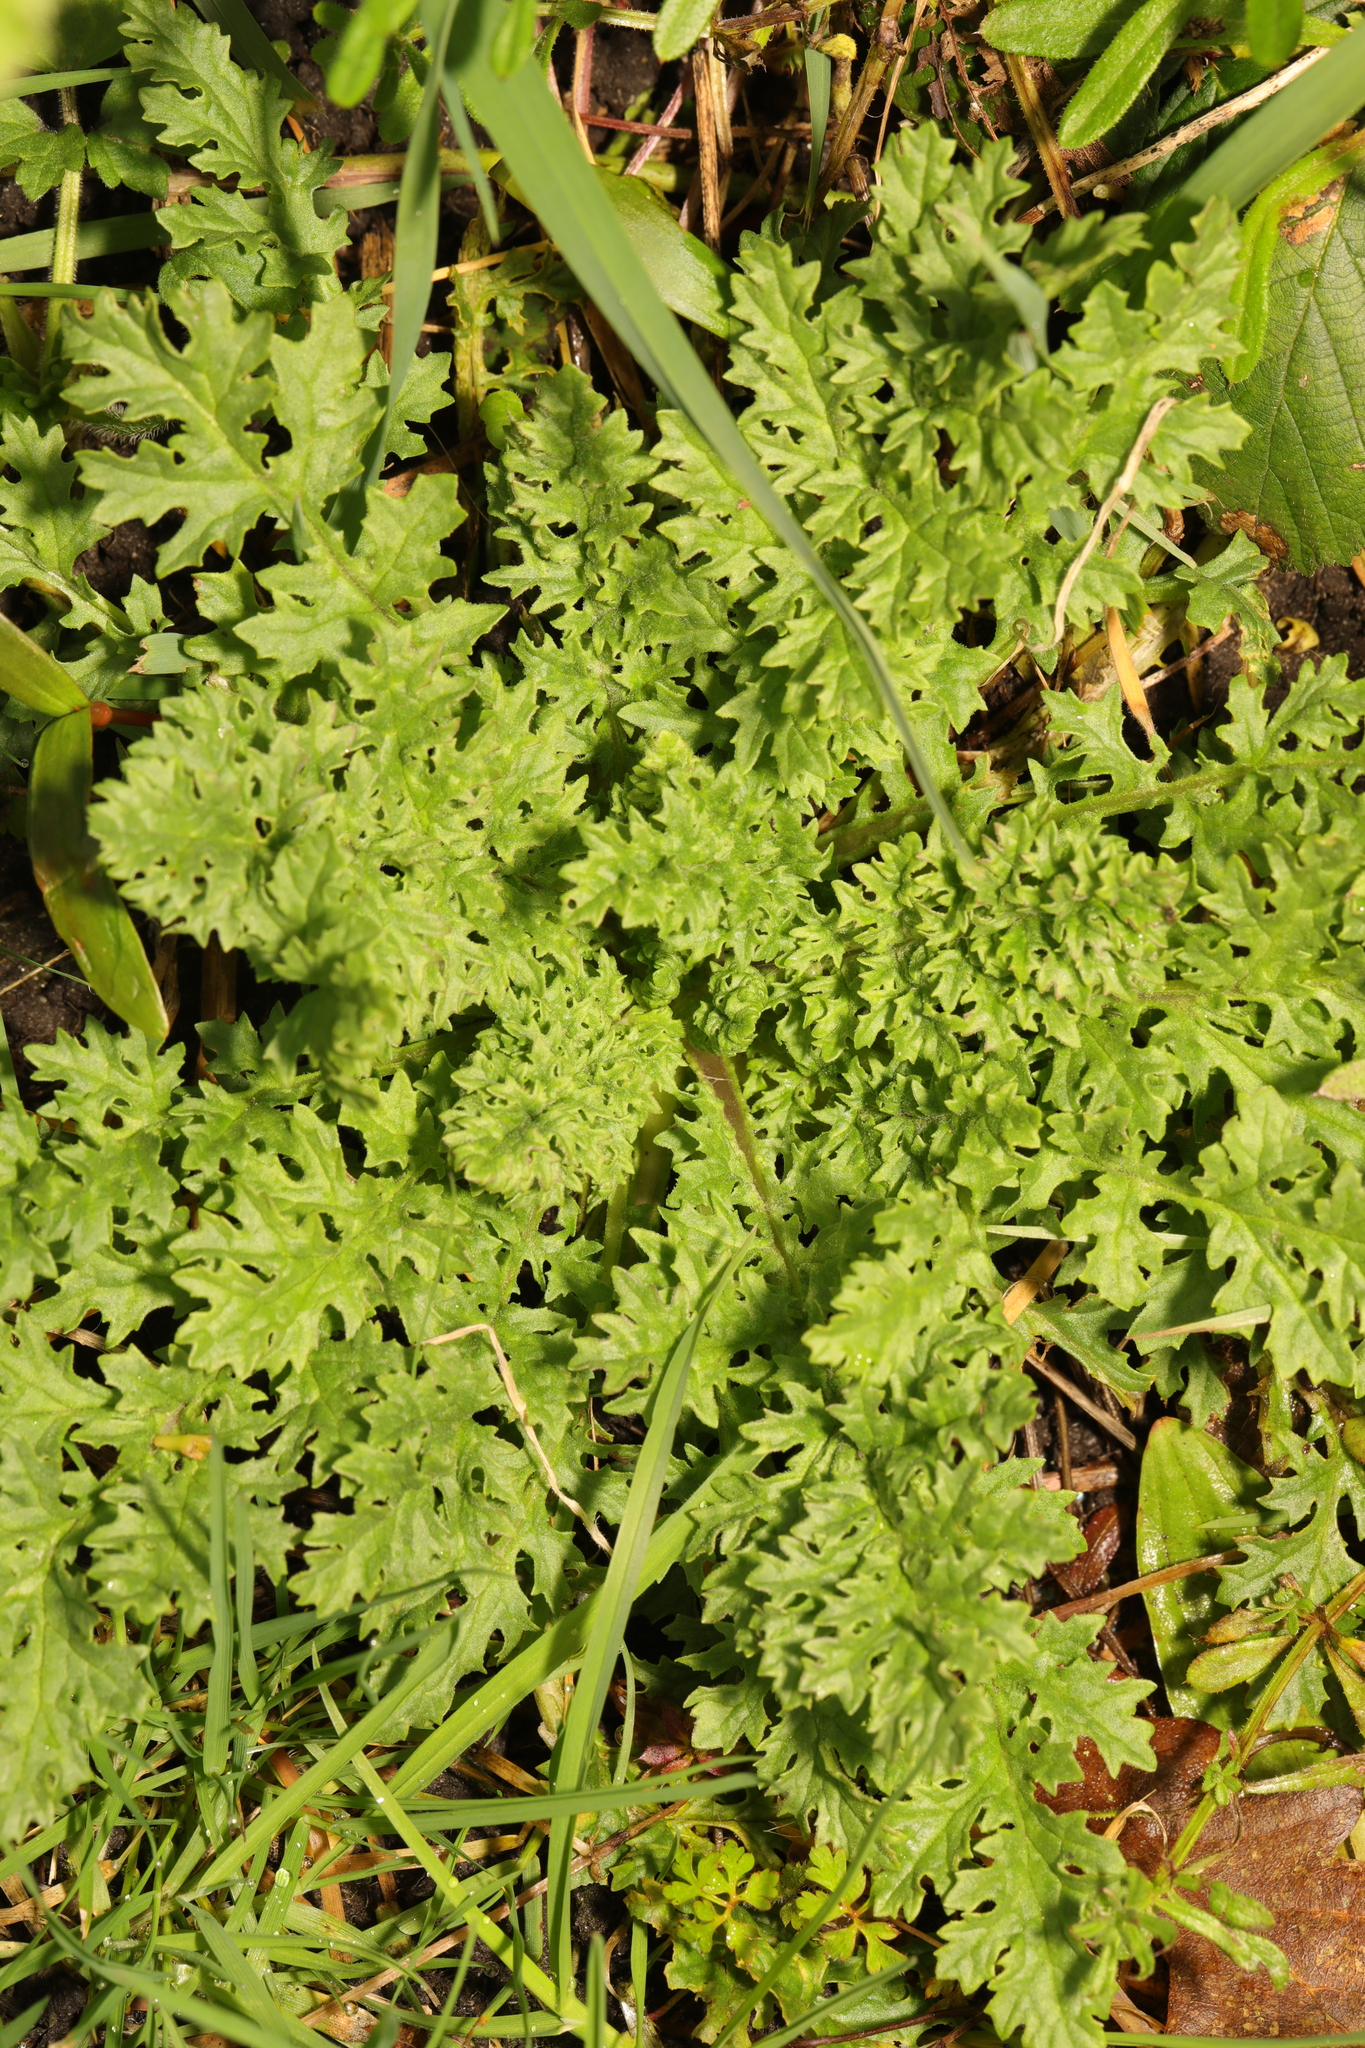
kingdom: Plantae
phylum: Tracheophyta
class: Magnoliopsida
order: Asterales
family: Asteraceae
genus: Jacobaea
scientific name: Jacobaea vulgaris
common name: Stinking willie
